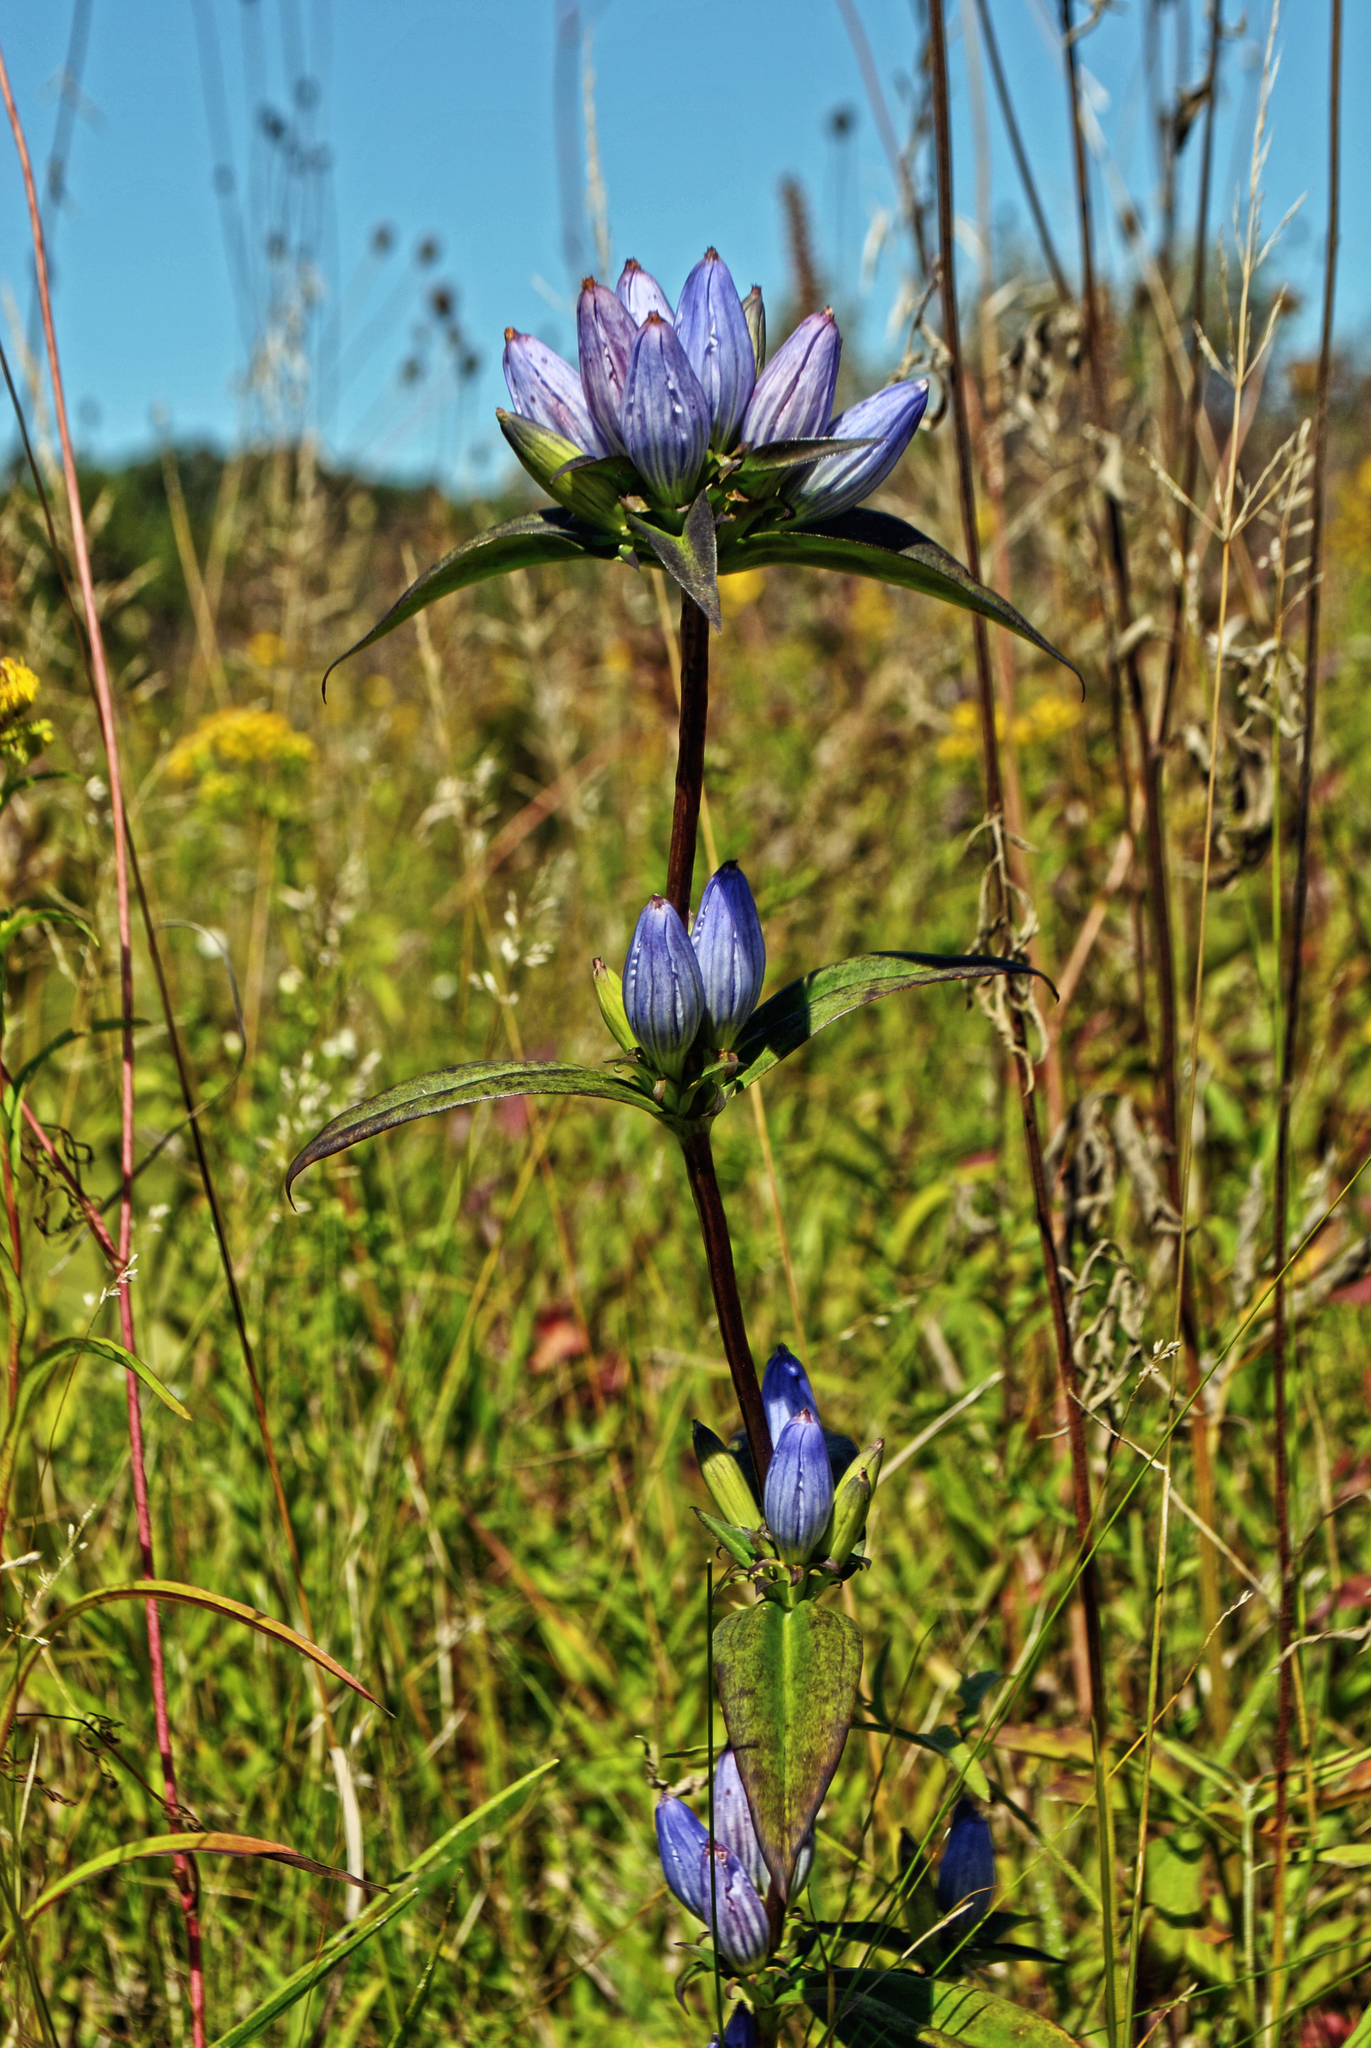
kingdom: Plantae
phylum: Tracheophyta
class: Magnoliopsida
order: Gentianales
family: Gentianaceae
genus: Gentiana
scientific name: Gentiana andrewsii
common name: Bottle gentian
